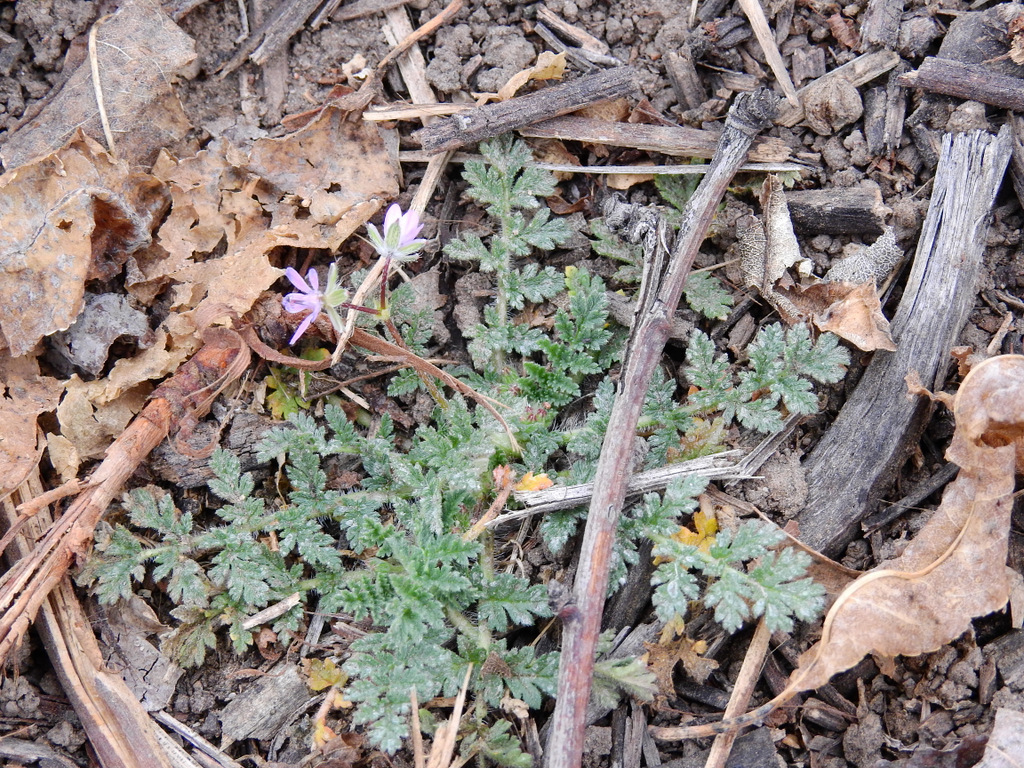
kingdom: Plantae
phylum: Tracheophyta
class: Magnoliopsida
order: Geraniales
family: Geraniaceae
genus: Erodium
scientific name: Erodium cicutarium
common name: Common stork's-bill
